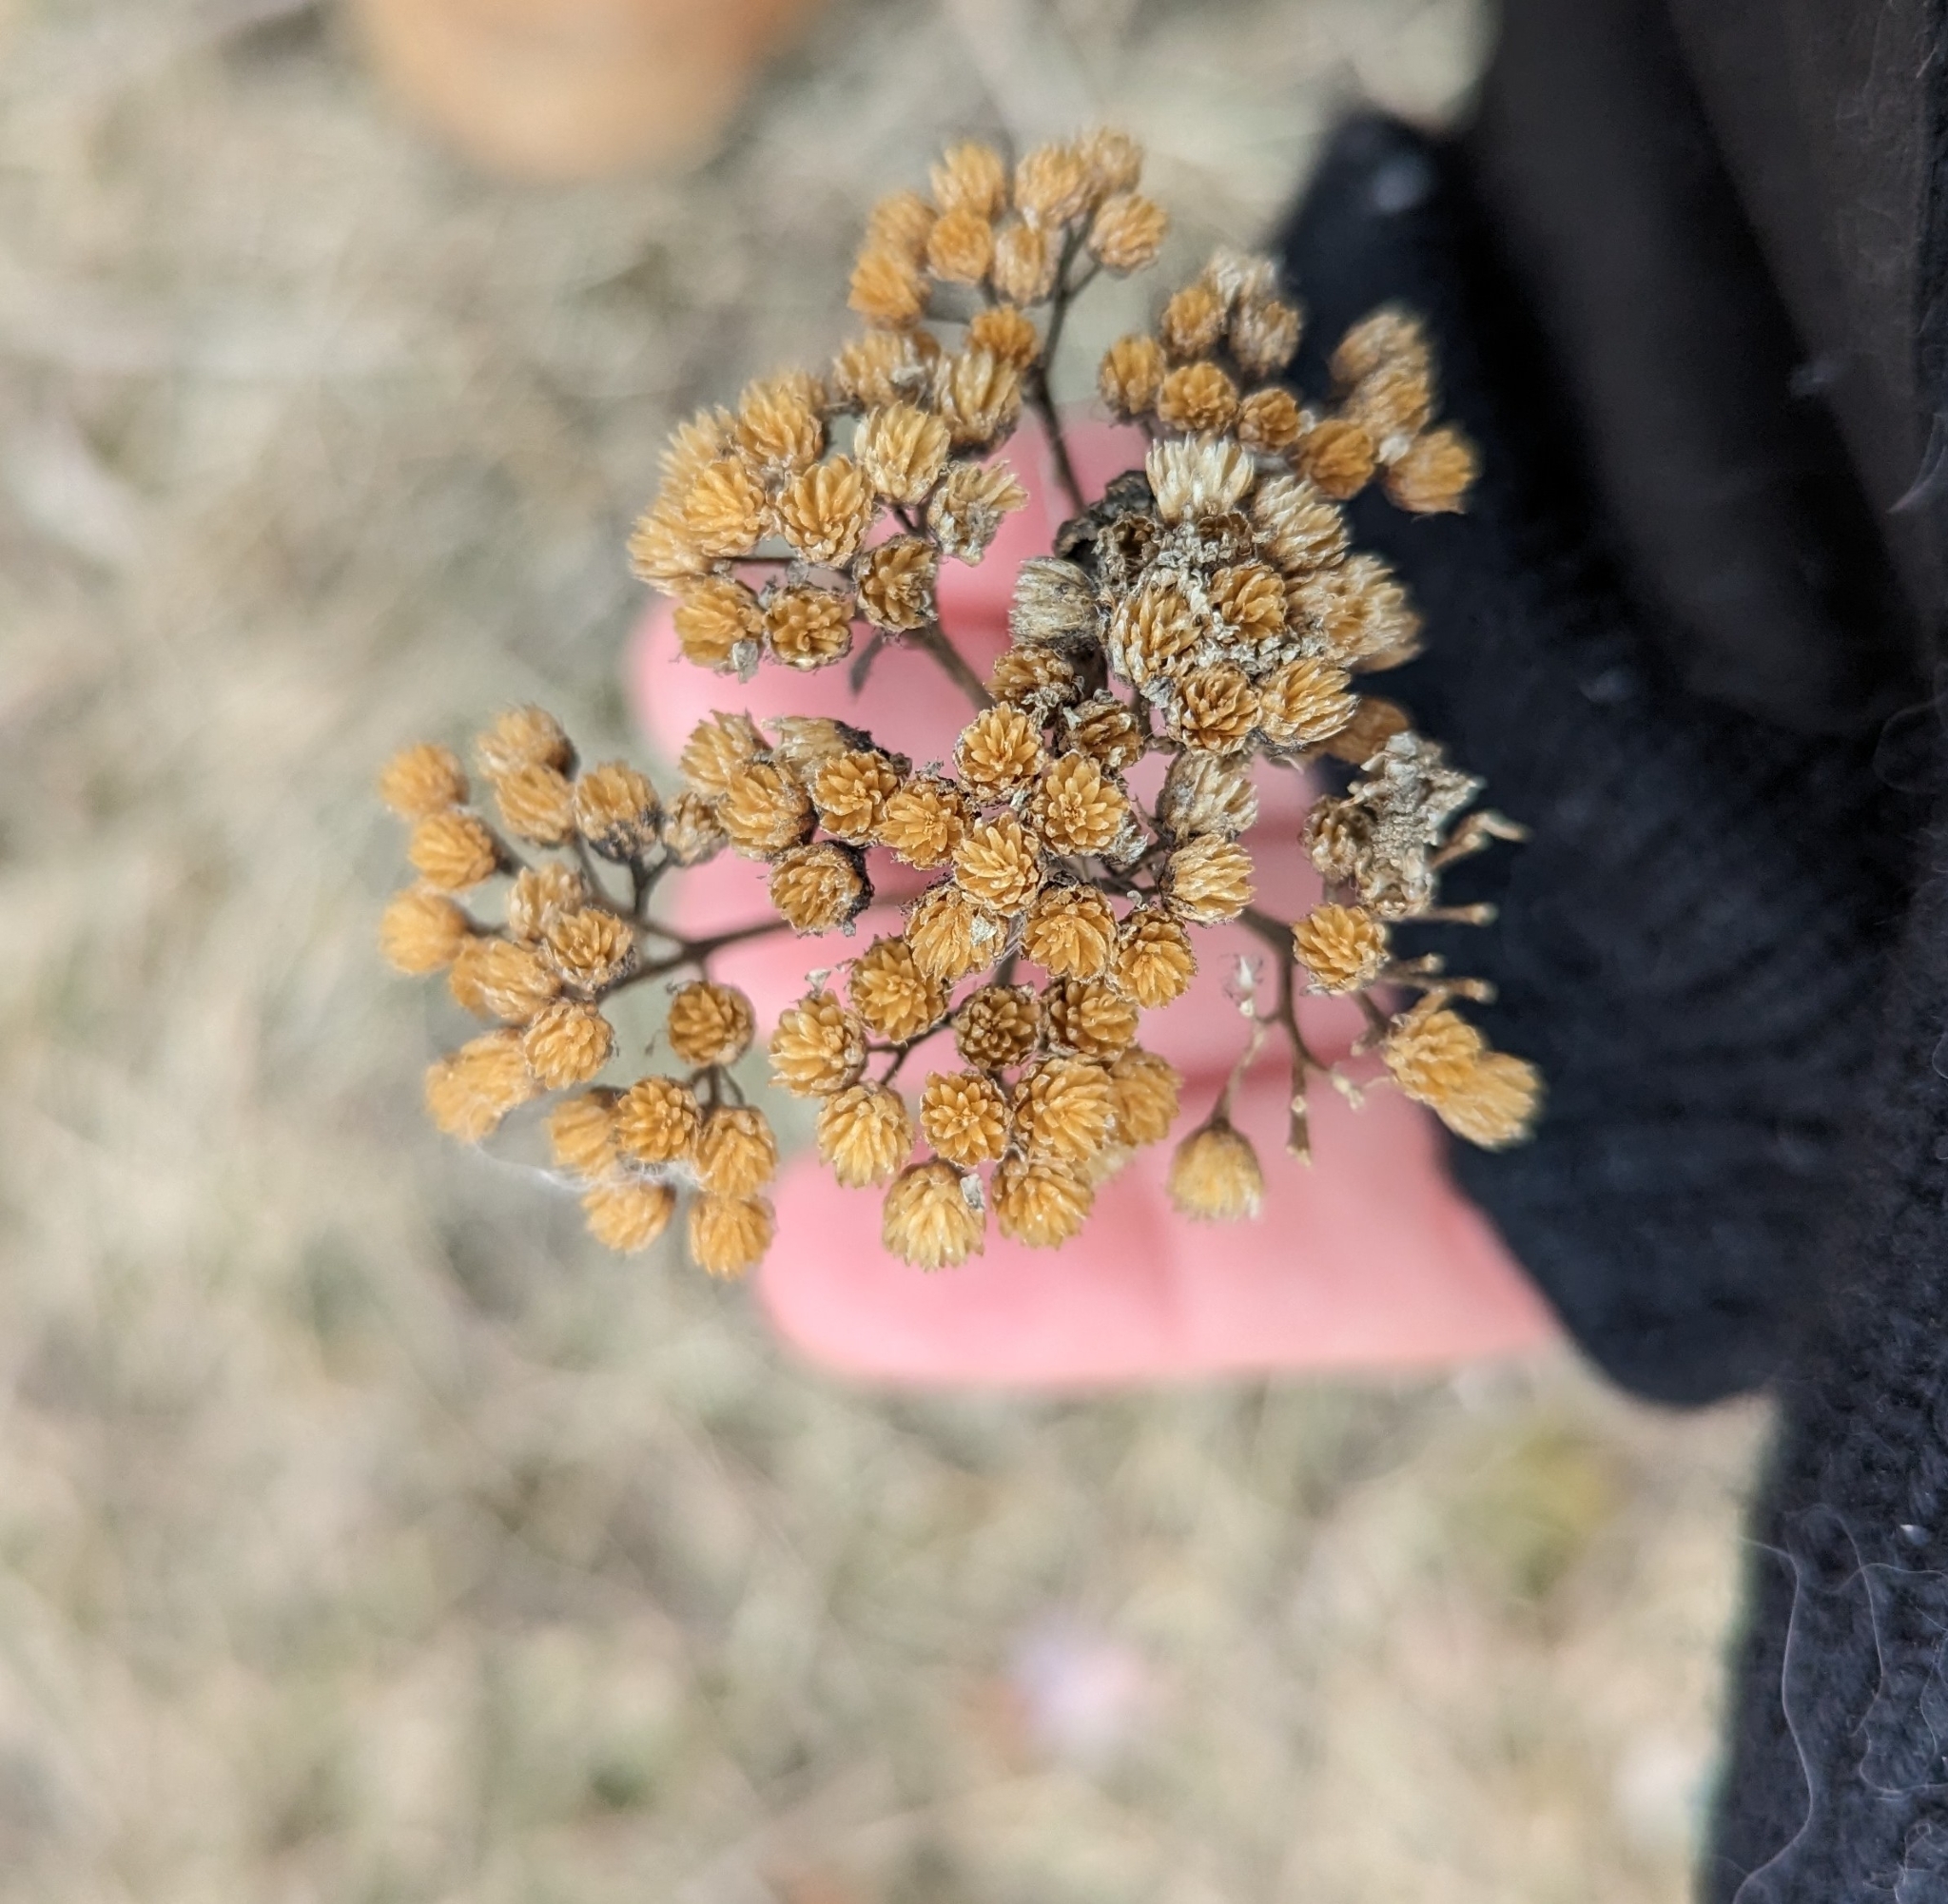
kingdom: Plantae
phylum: Tracheophyta
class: Magnoliopsida
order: Asterales
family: Asteraceae
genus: Achillea
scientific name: Achillea millefolium
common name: Yarrow
